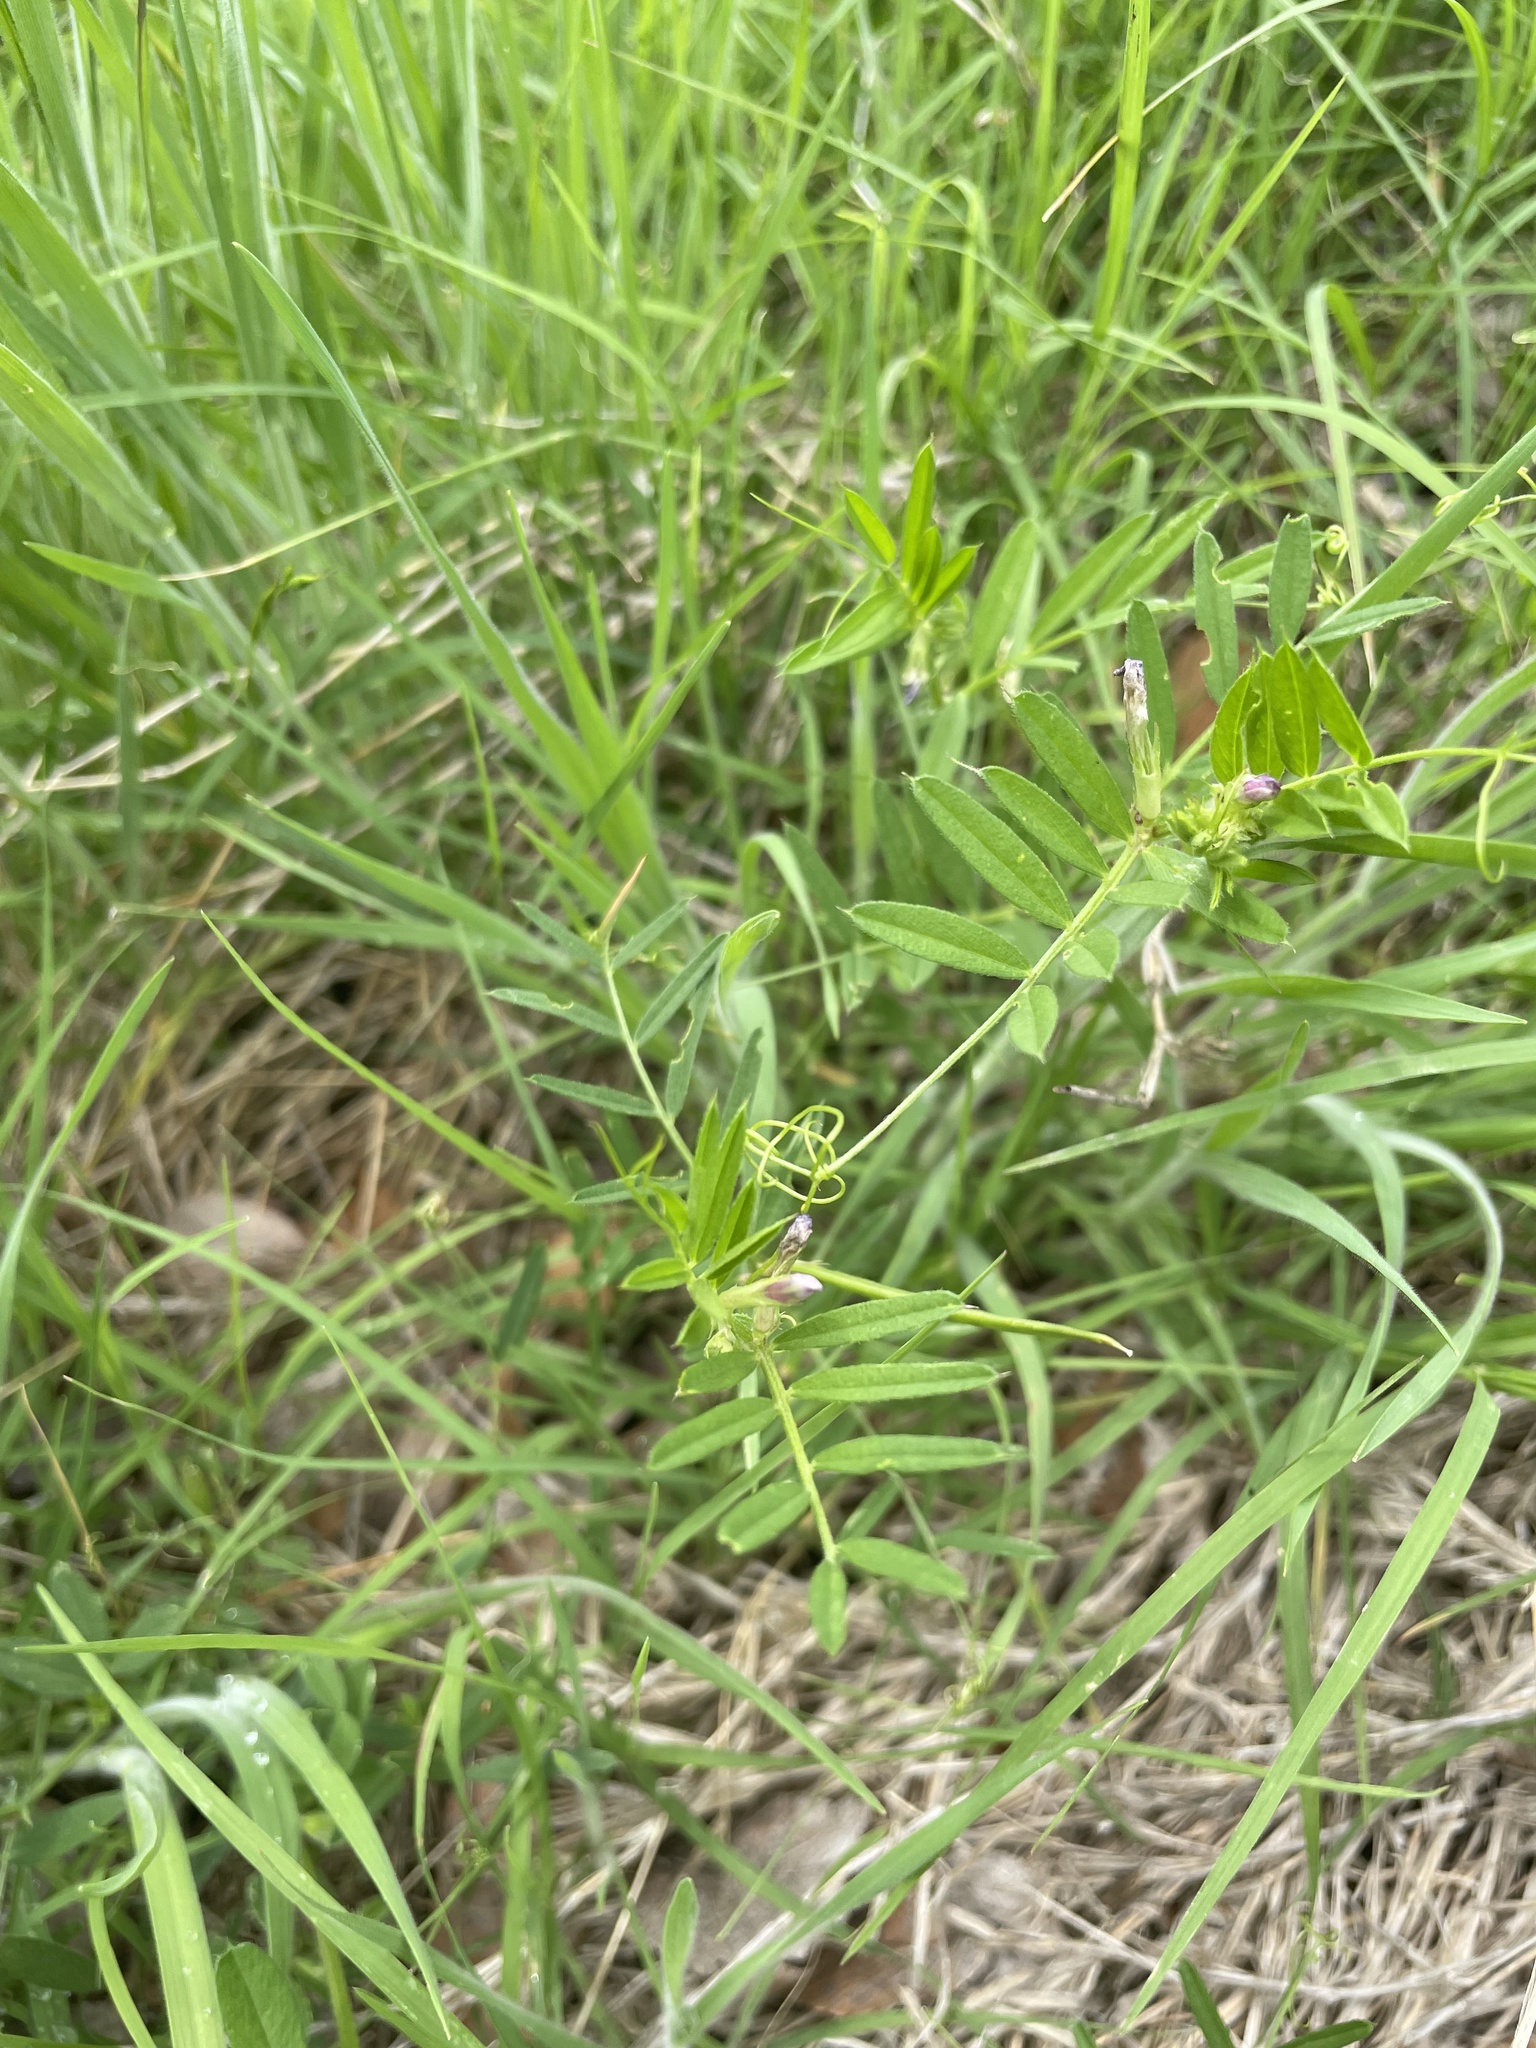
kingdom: Plantae
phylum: Tracheophyta
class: Magnoliopsida
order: Fabales
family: Fabaceae
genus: Vicia
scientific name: Vicia sativa
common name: Garden vetch
